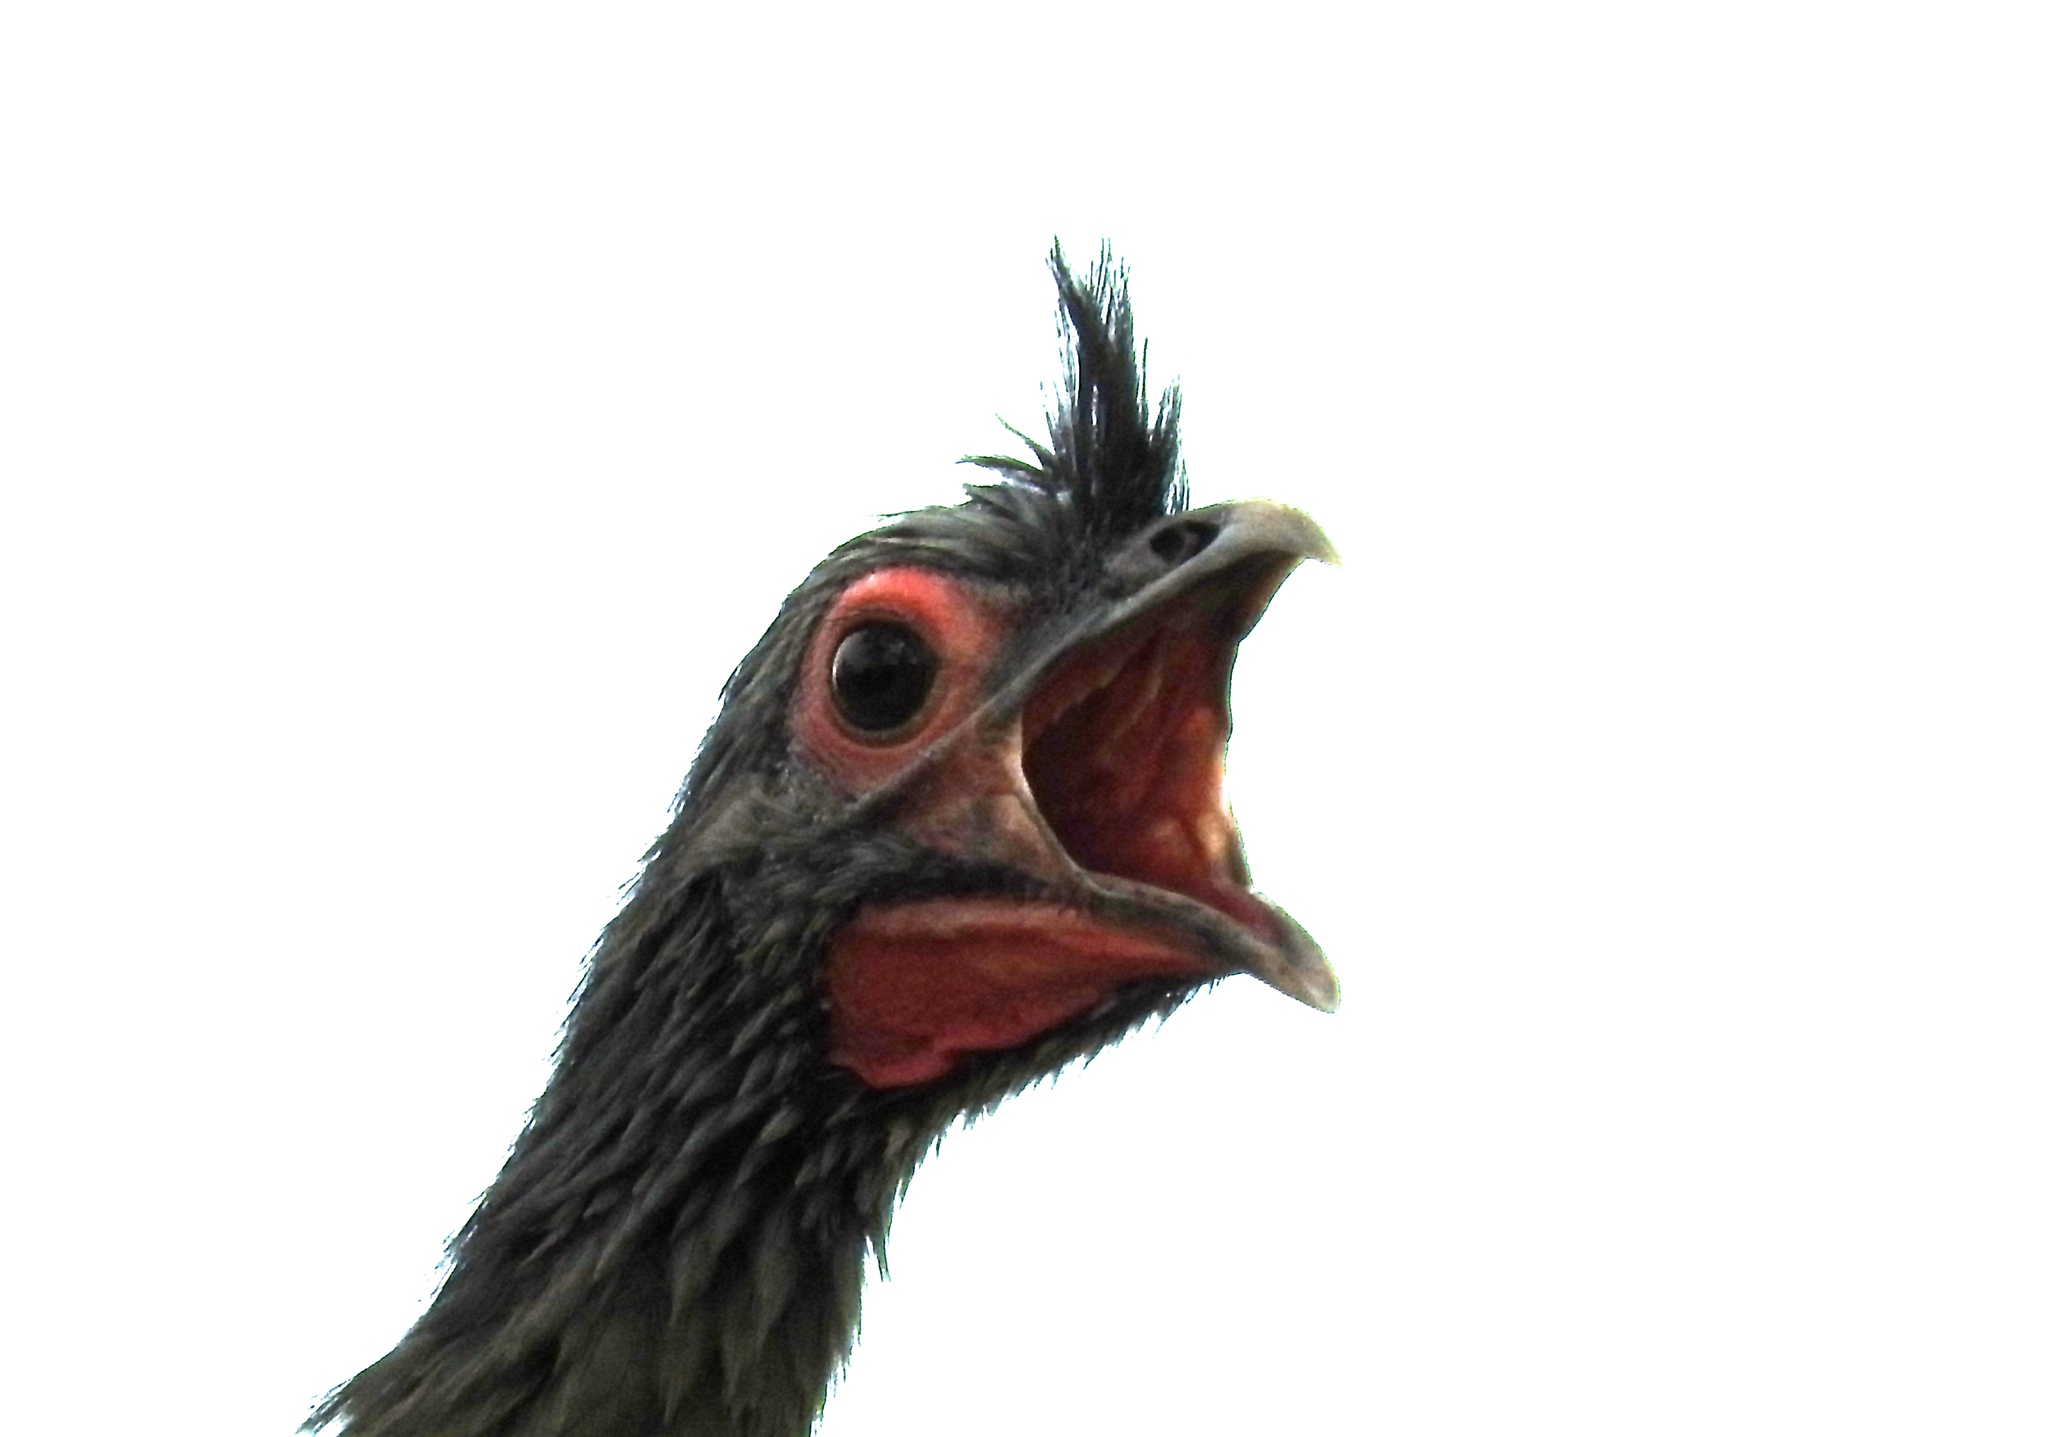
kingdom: Animalia
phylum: Chordata
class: Aves
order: Galliformes
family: Cracidae
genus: Ortalis
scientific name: Ortalis wagleri
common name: Rufous-bellied chachalaca
